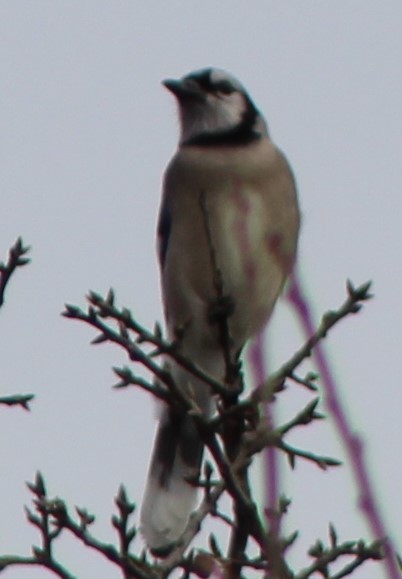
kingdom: Animalia
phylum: Chordata
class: Aves
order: Passeriformes
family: Corvidae
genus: Cyanocitta
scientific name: Cyanocitta cristata
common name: Blue jay
